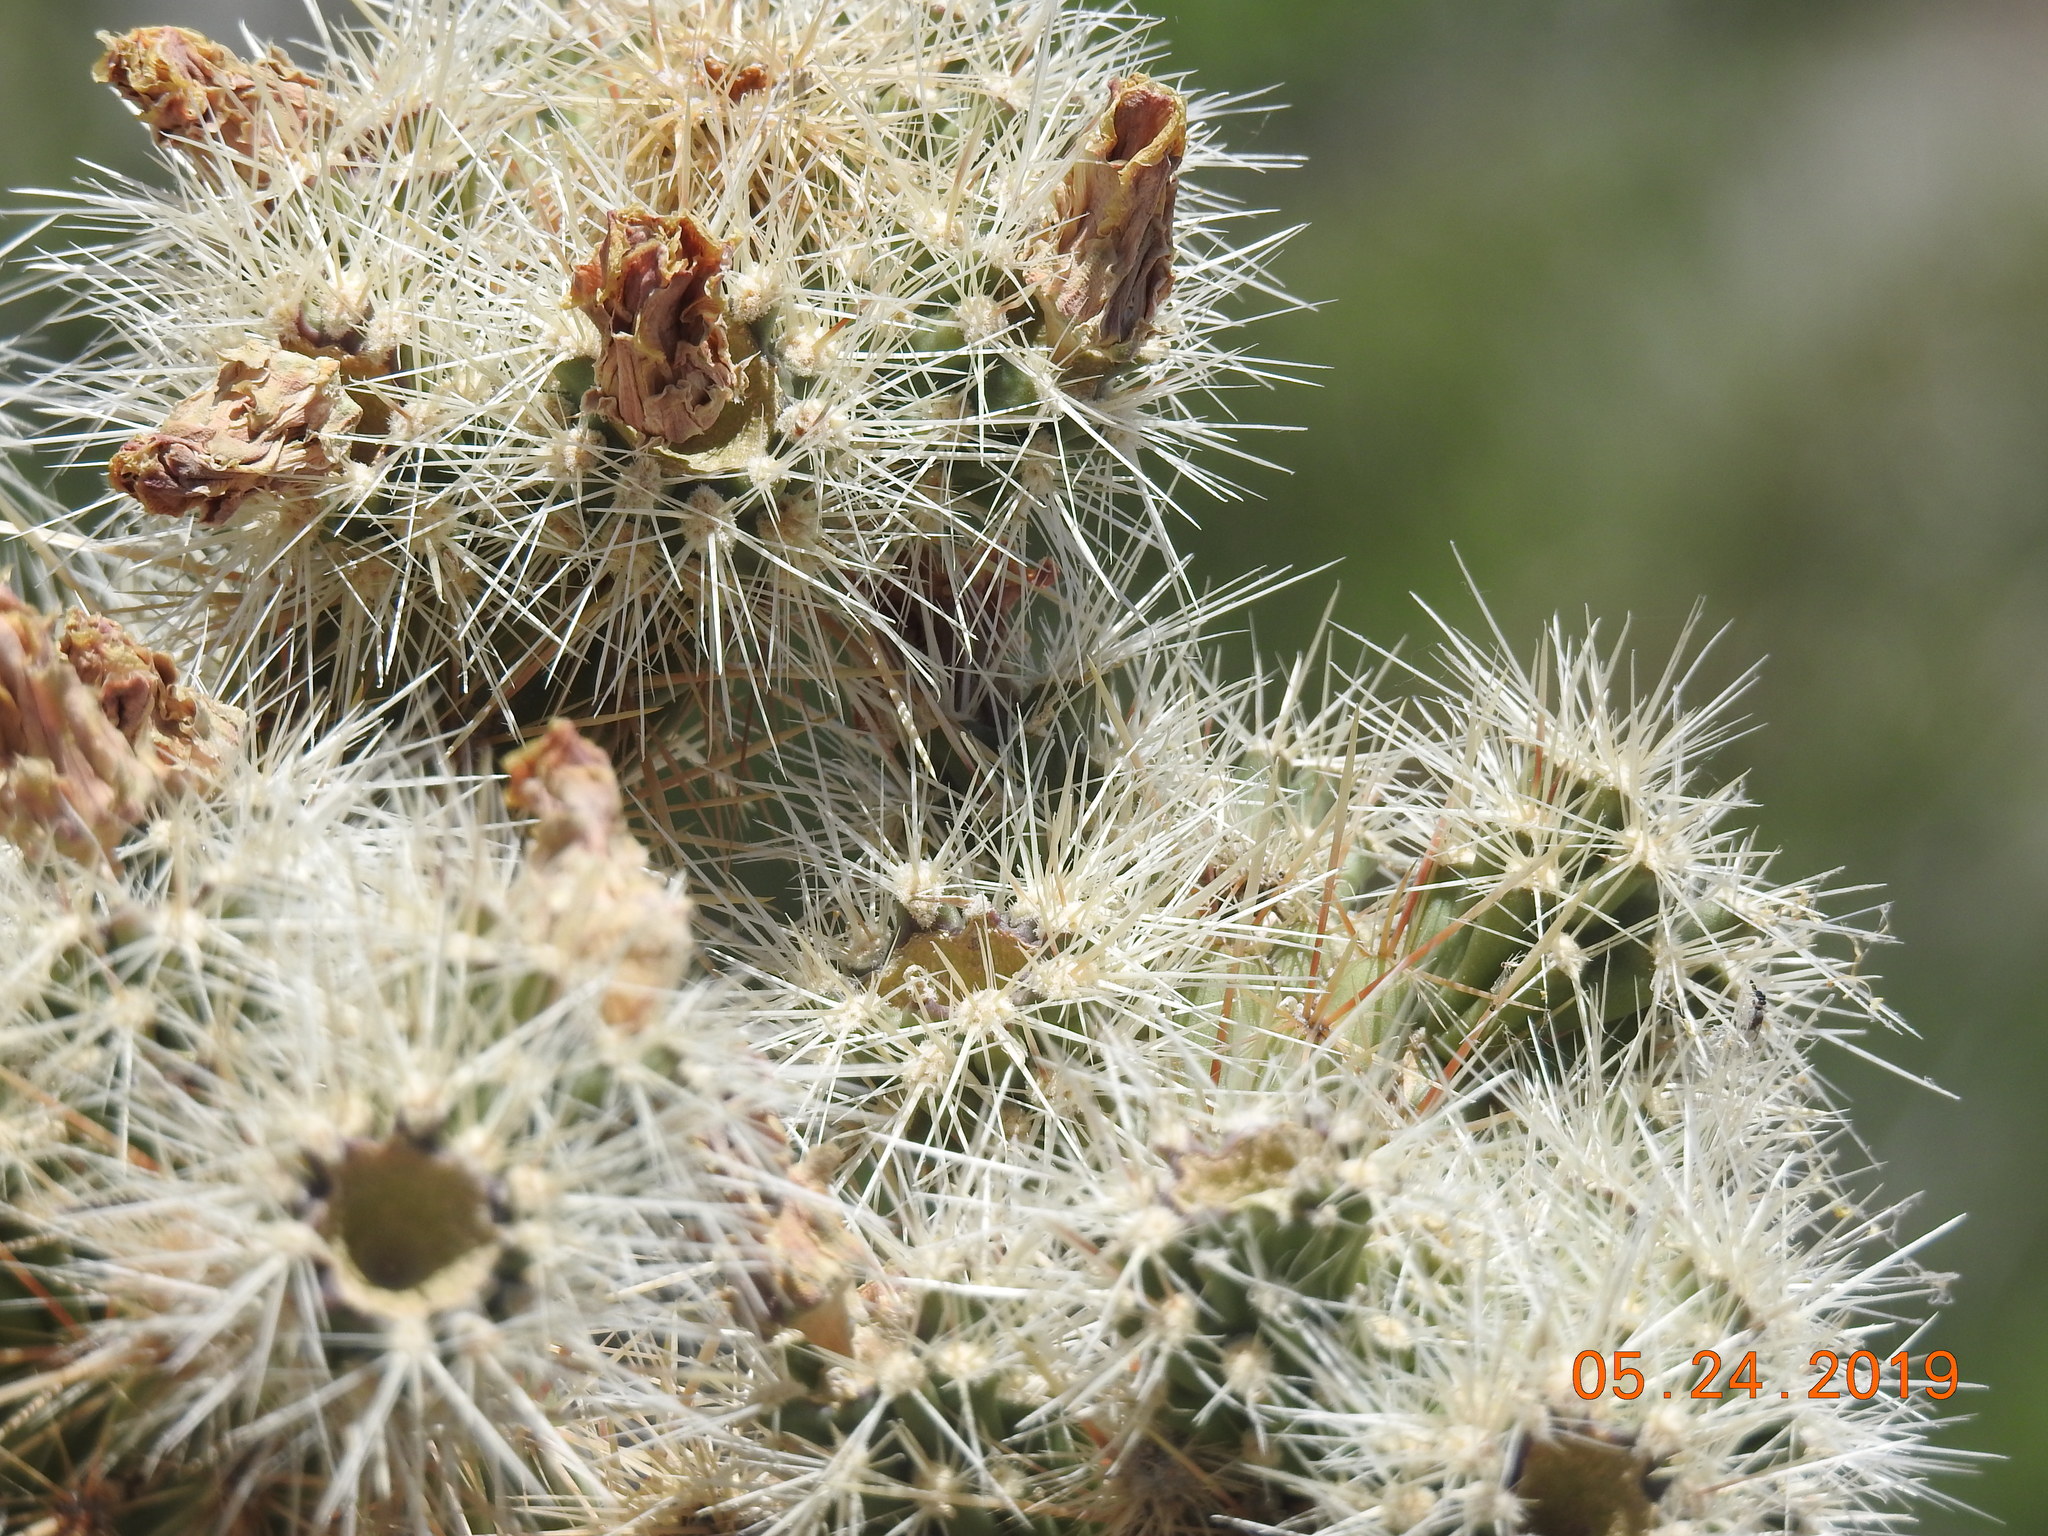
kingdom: Plantae
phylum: Tracheophyta
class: Magnoliopsida
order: Caryophyllales
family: Cactaceae
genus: Cylindropuntia
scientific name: Cylindropuntia echinocarpa
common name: Ground cholla
